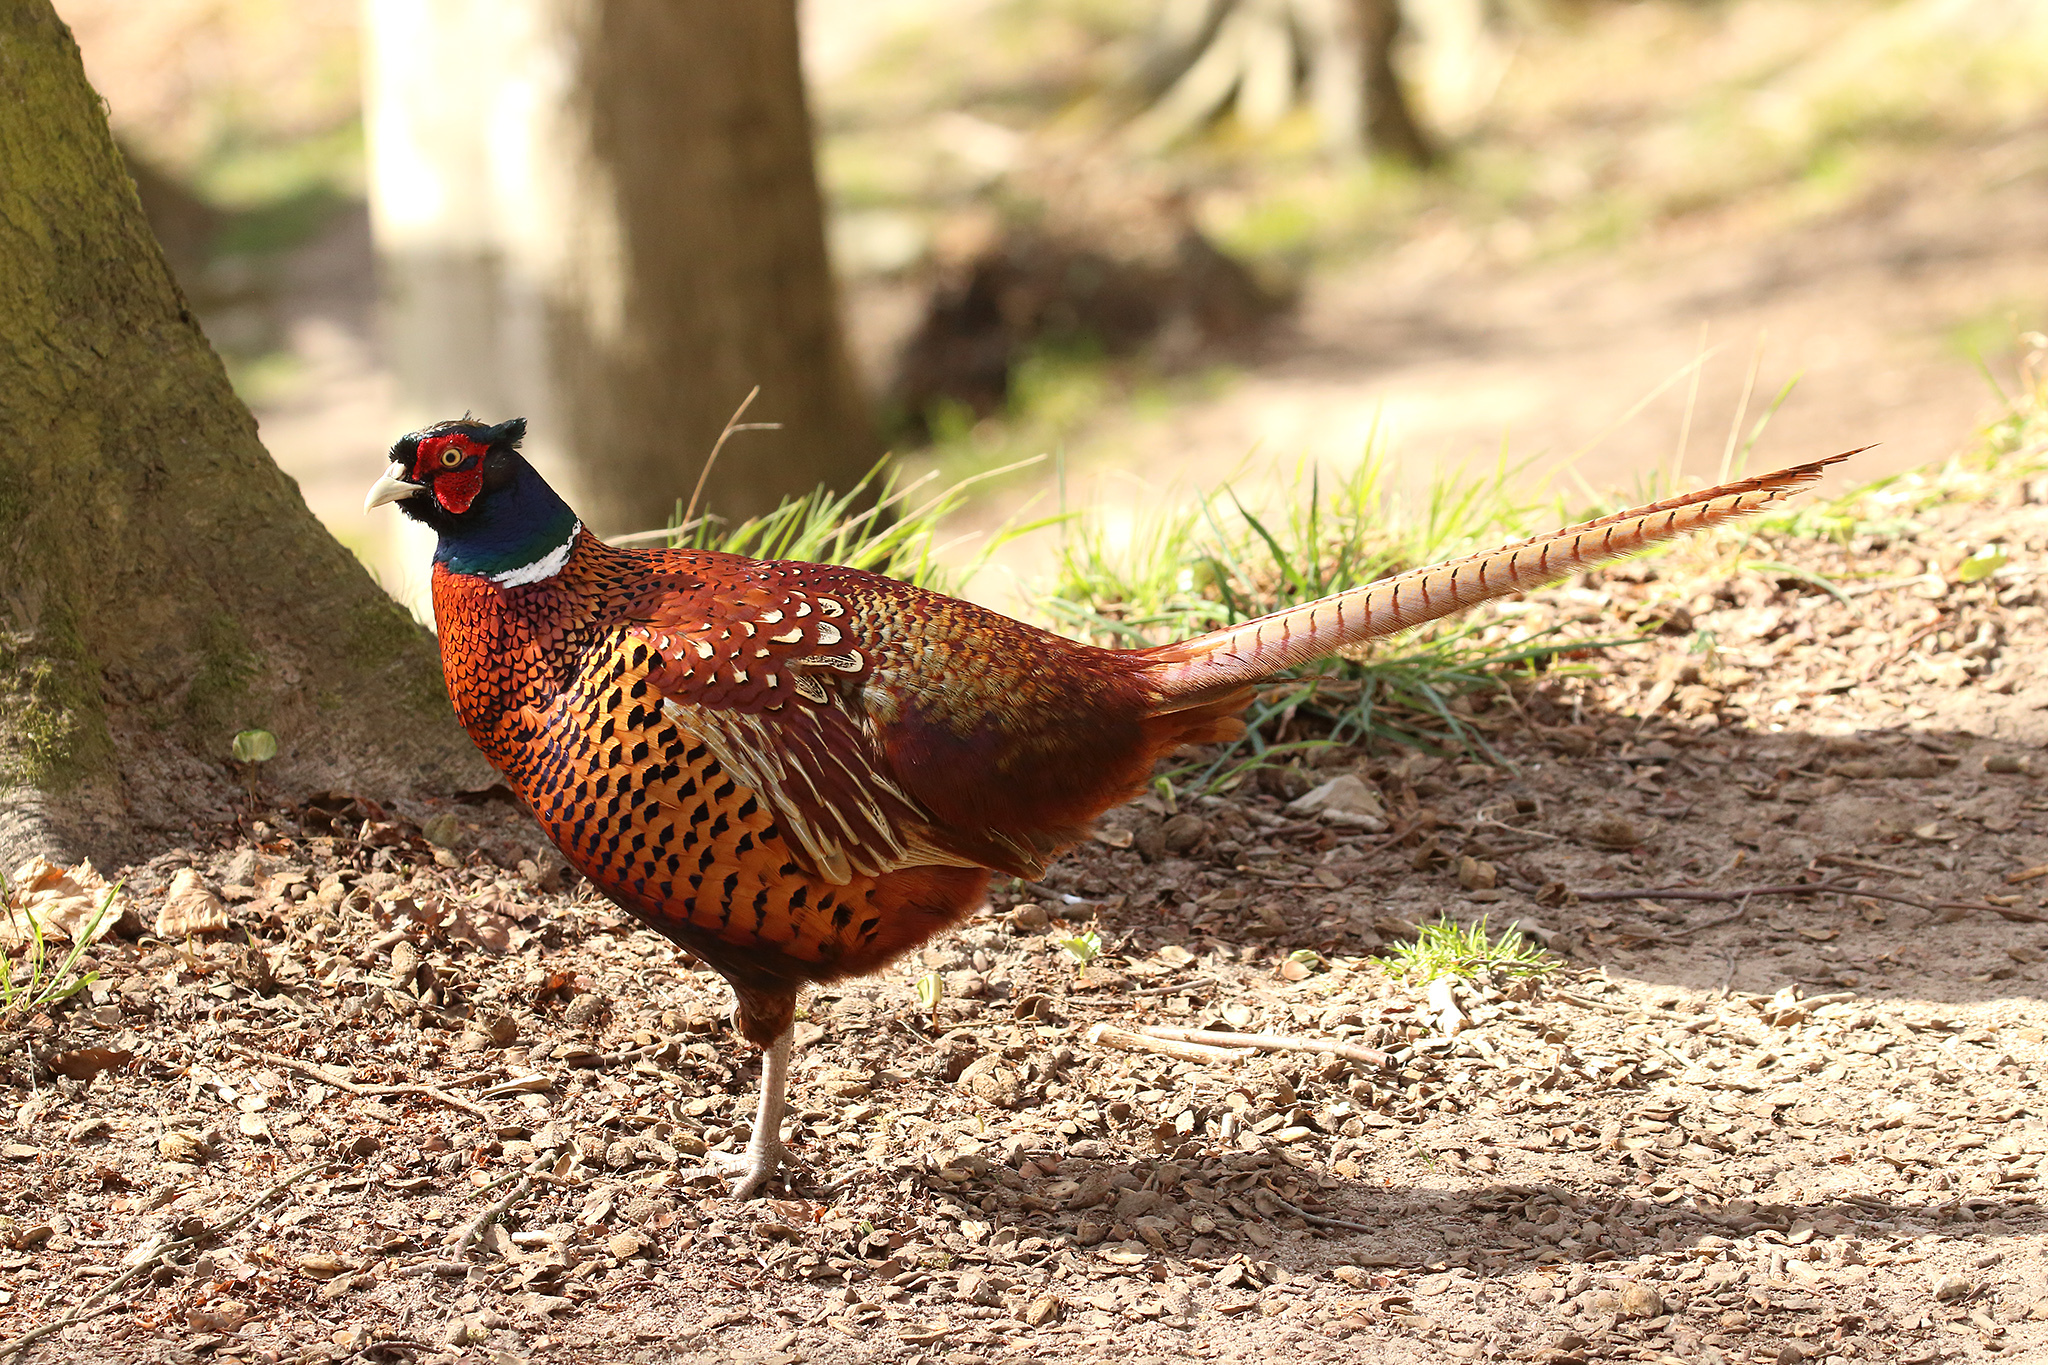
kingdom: Animalia
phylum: Chordata
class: Aves
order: Galliformes
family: Phasianidae
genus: Phasianus
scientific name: Phasianus colchicus
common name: Common pheasant
